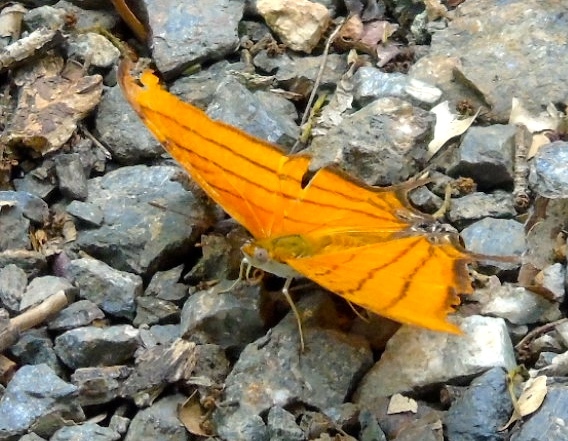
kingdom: Animalia
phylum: Arthropoda
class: Insecta
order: Lepidoptera
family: Nymphalidae
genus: Marpesia
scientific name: Marpesia petreus
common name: Red dagger wing
